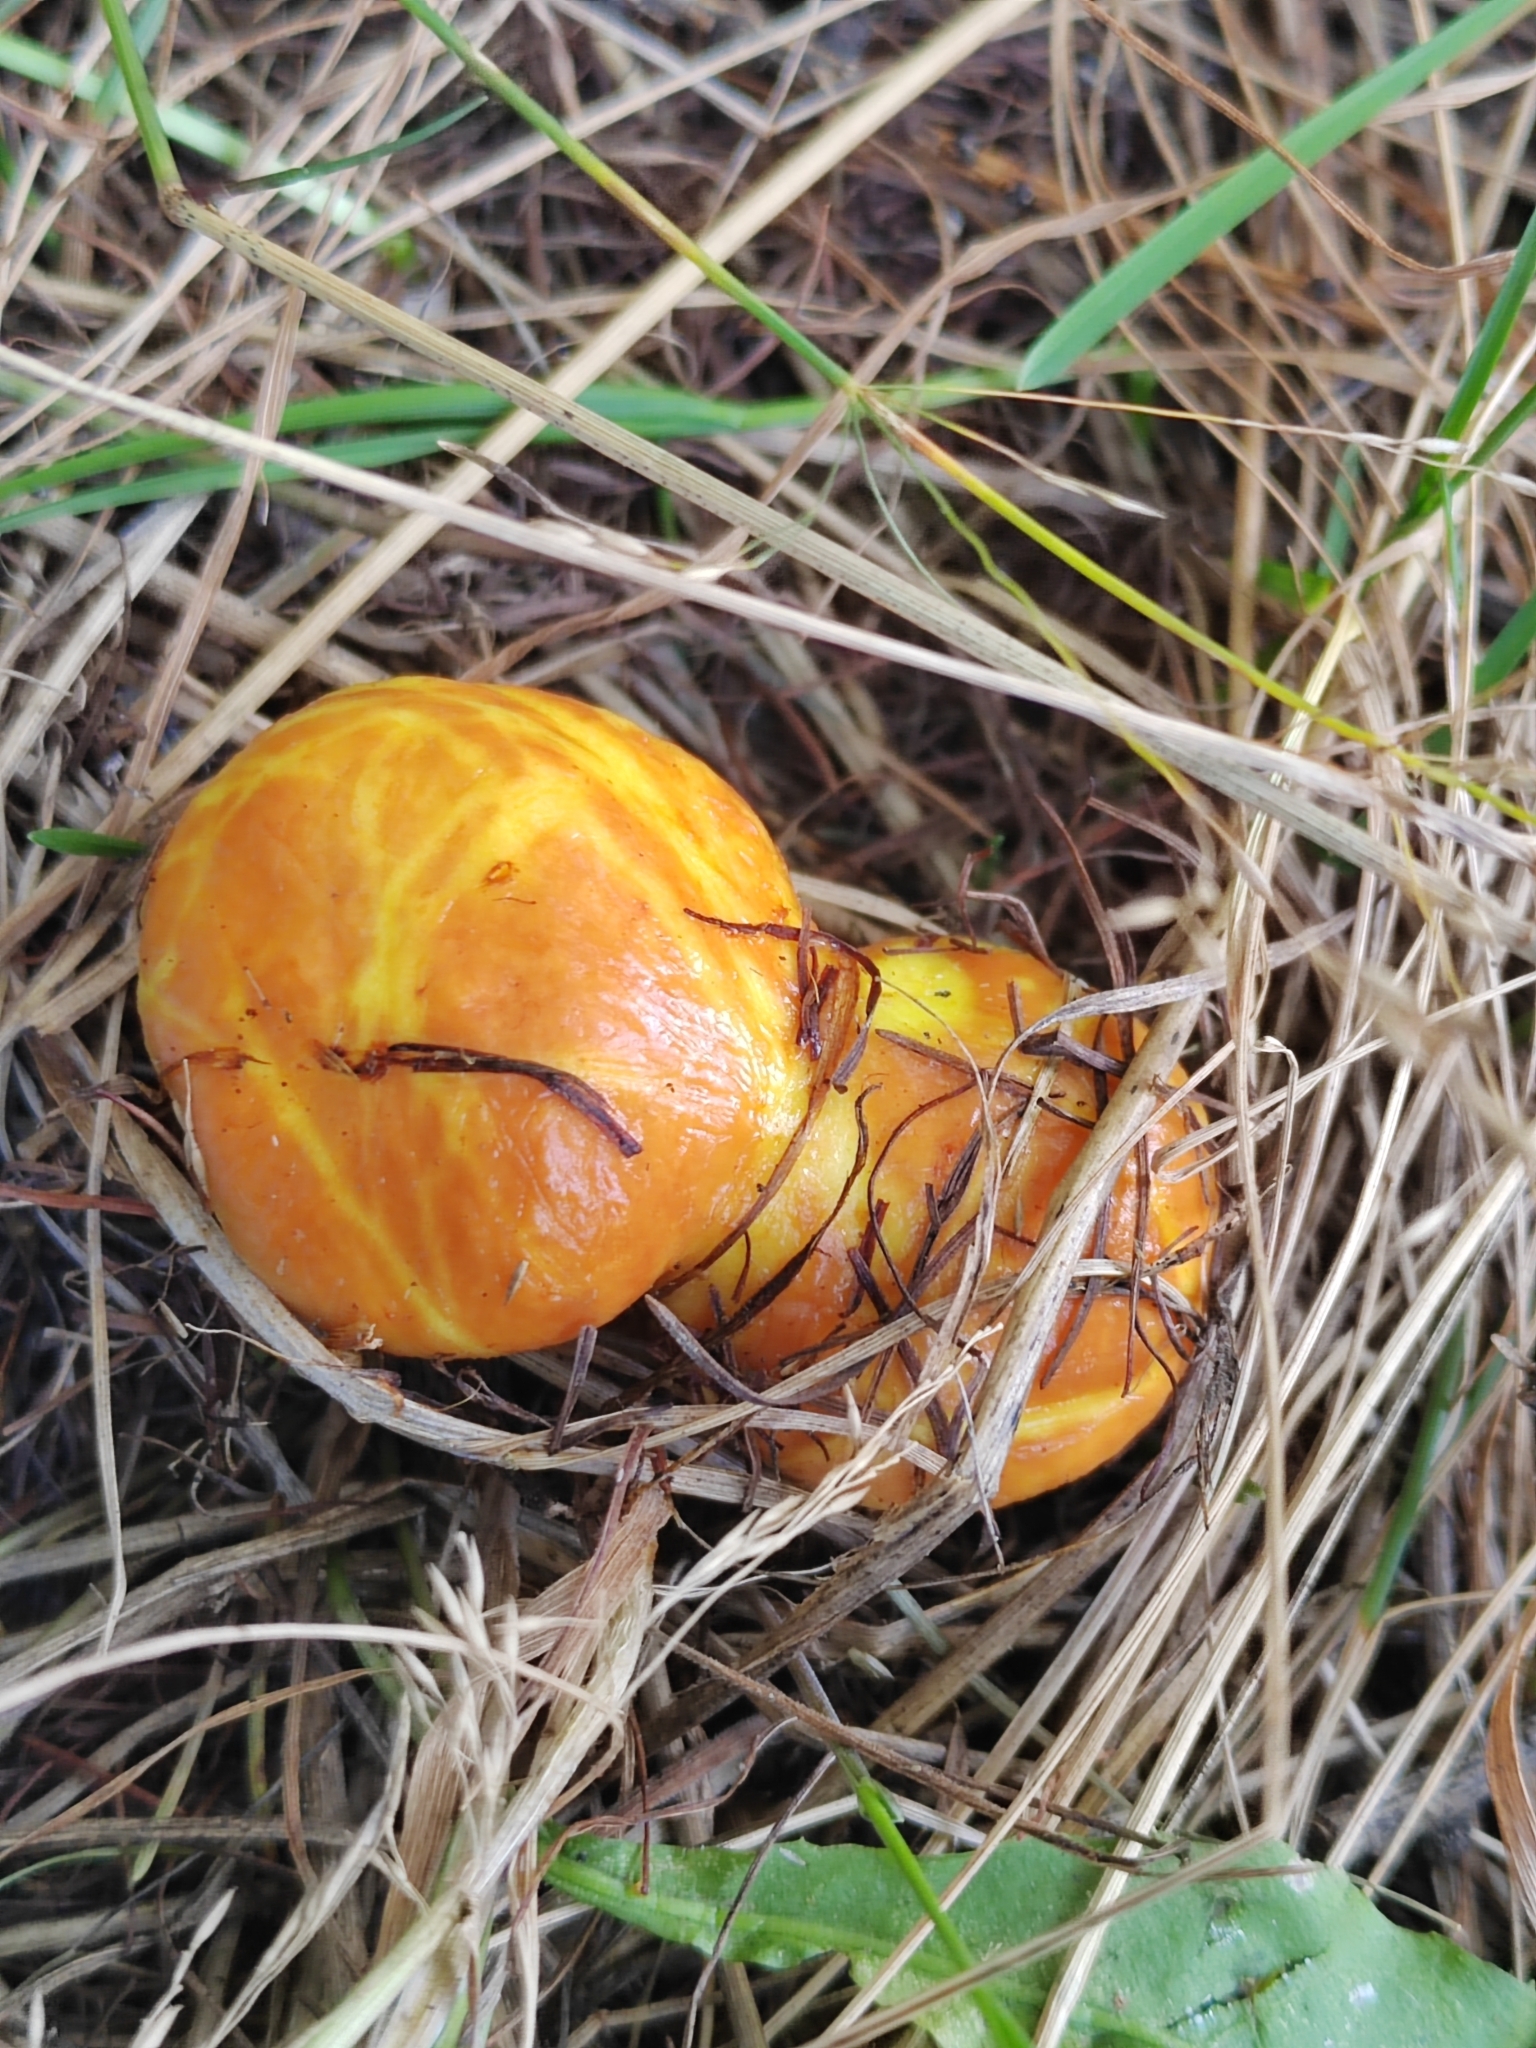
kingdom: Fungi
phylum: Basidiomycota
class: Agaricomycetes
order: Boletales
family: Suillaceae
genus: Suillus
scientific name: Suillus grevillei
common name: Larch bolete
